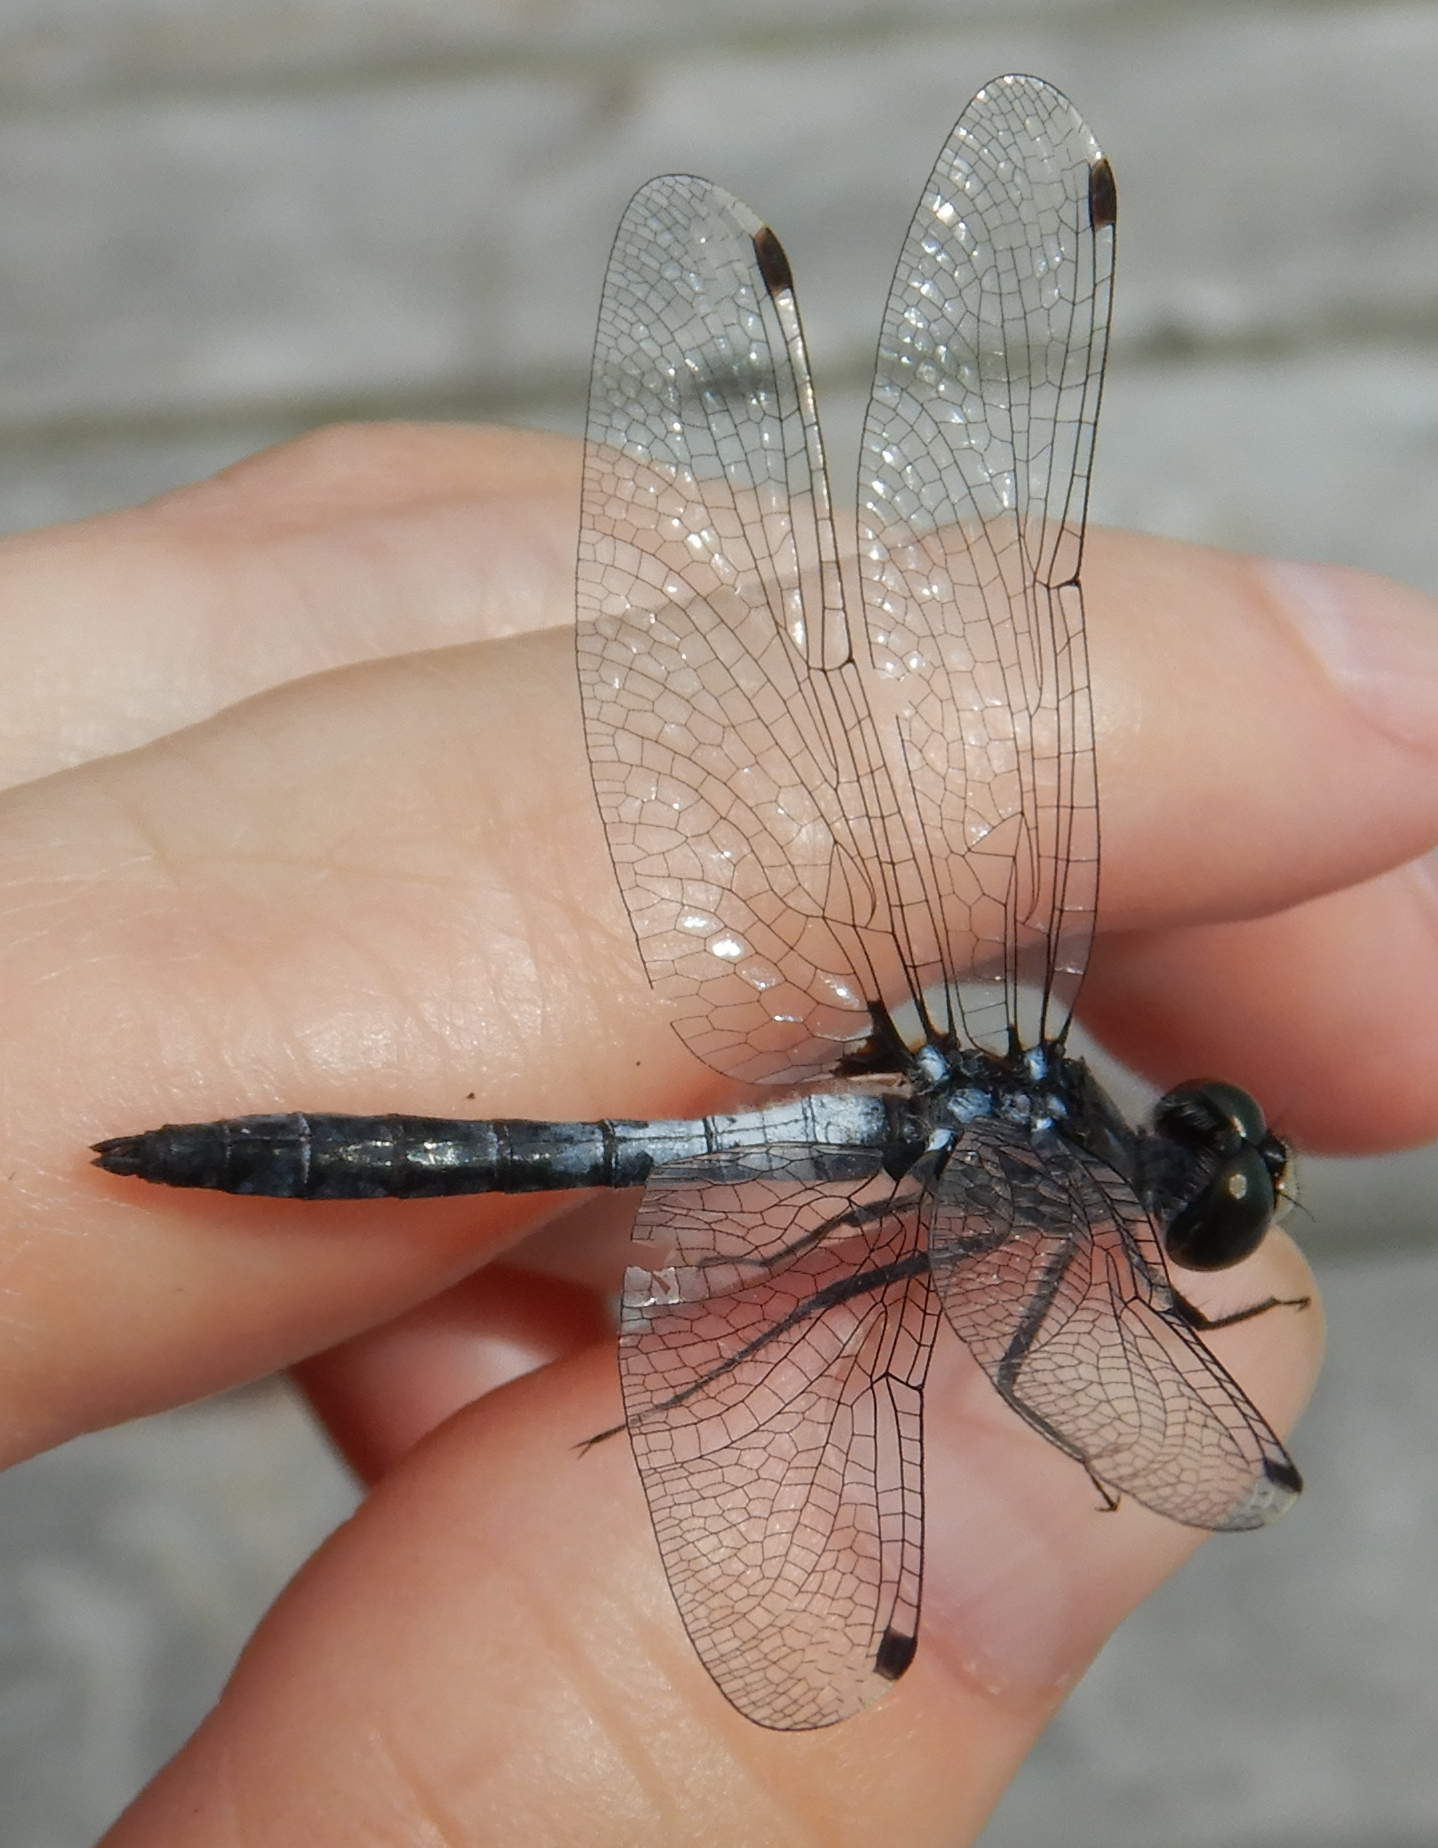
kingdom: Animalia
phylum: Arthropoda
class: Insecta
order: Odonata
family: Libellulidae
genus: Leucorrhinia
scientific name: Leucorrhinia frigida
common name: Frosted whiteface
